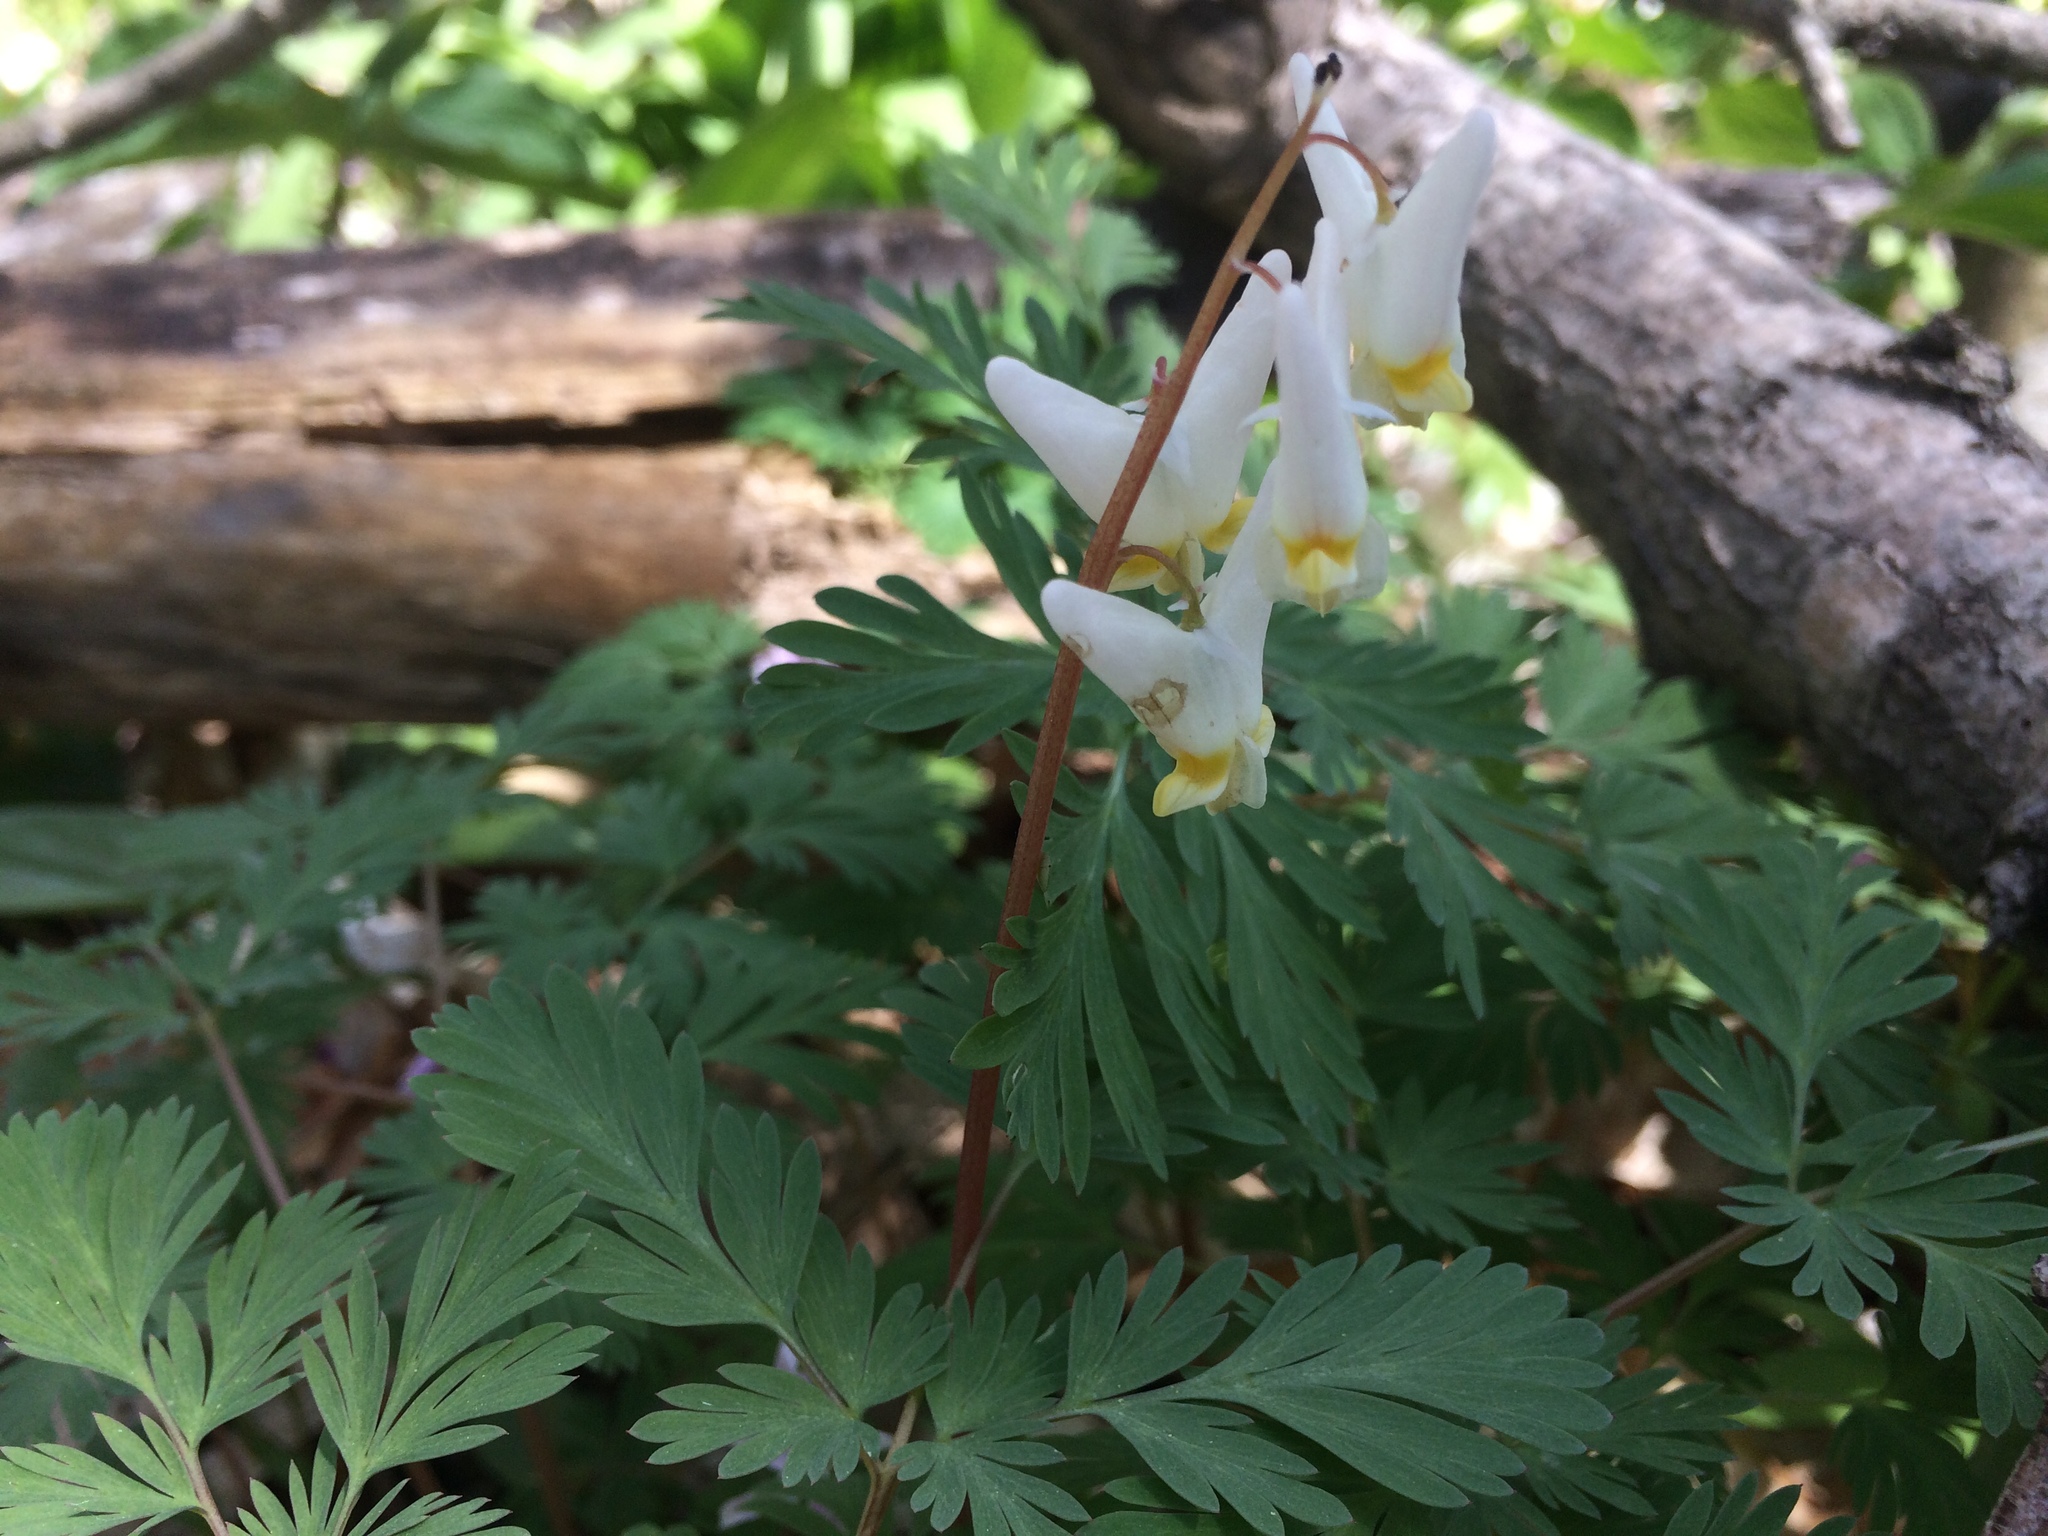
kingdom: Plantae
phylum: Tracheophyta
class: Magnoliopsida
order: Ranunculales
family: Papaveraceae
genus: Dicentra
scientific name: Dicentra cucullaria
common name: Dutchman's breeches
